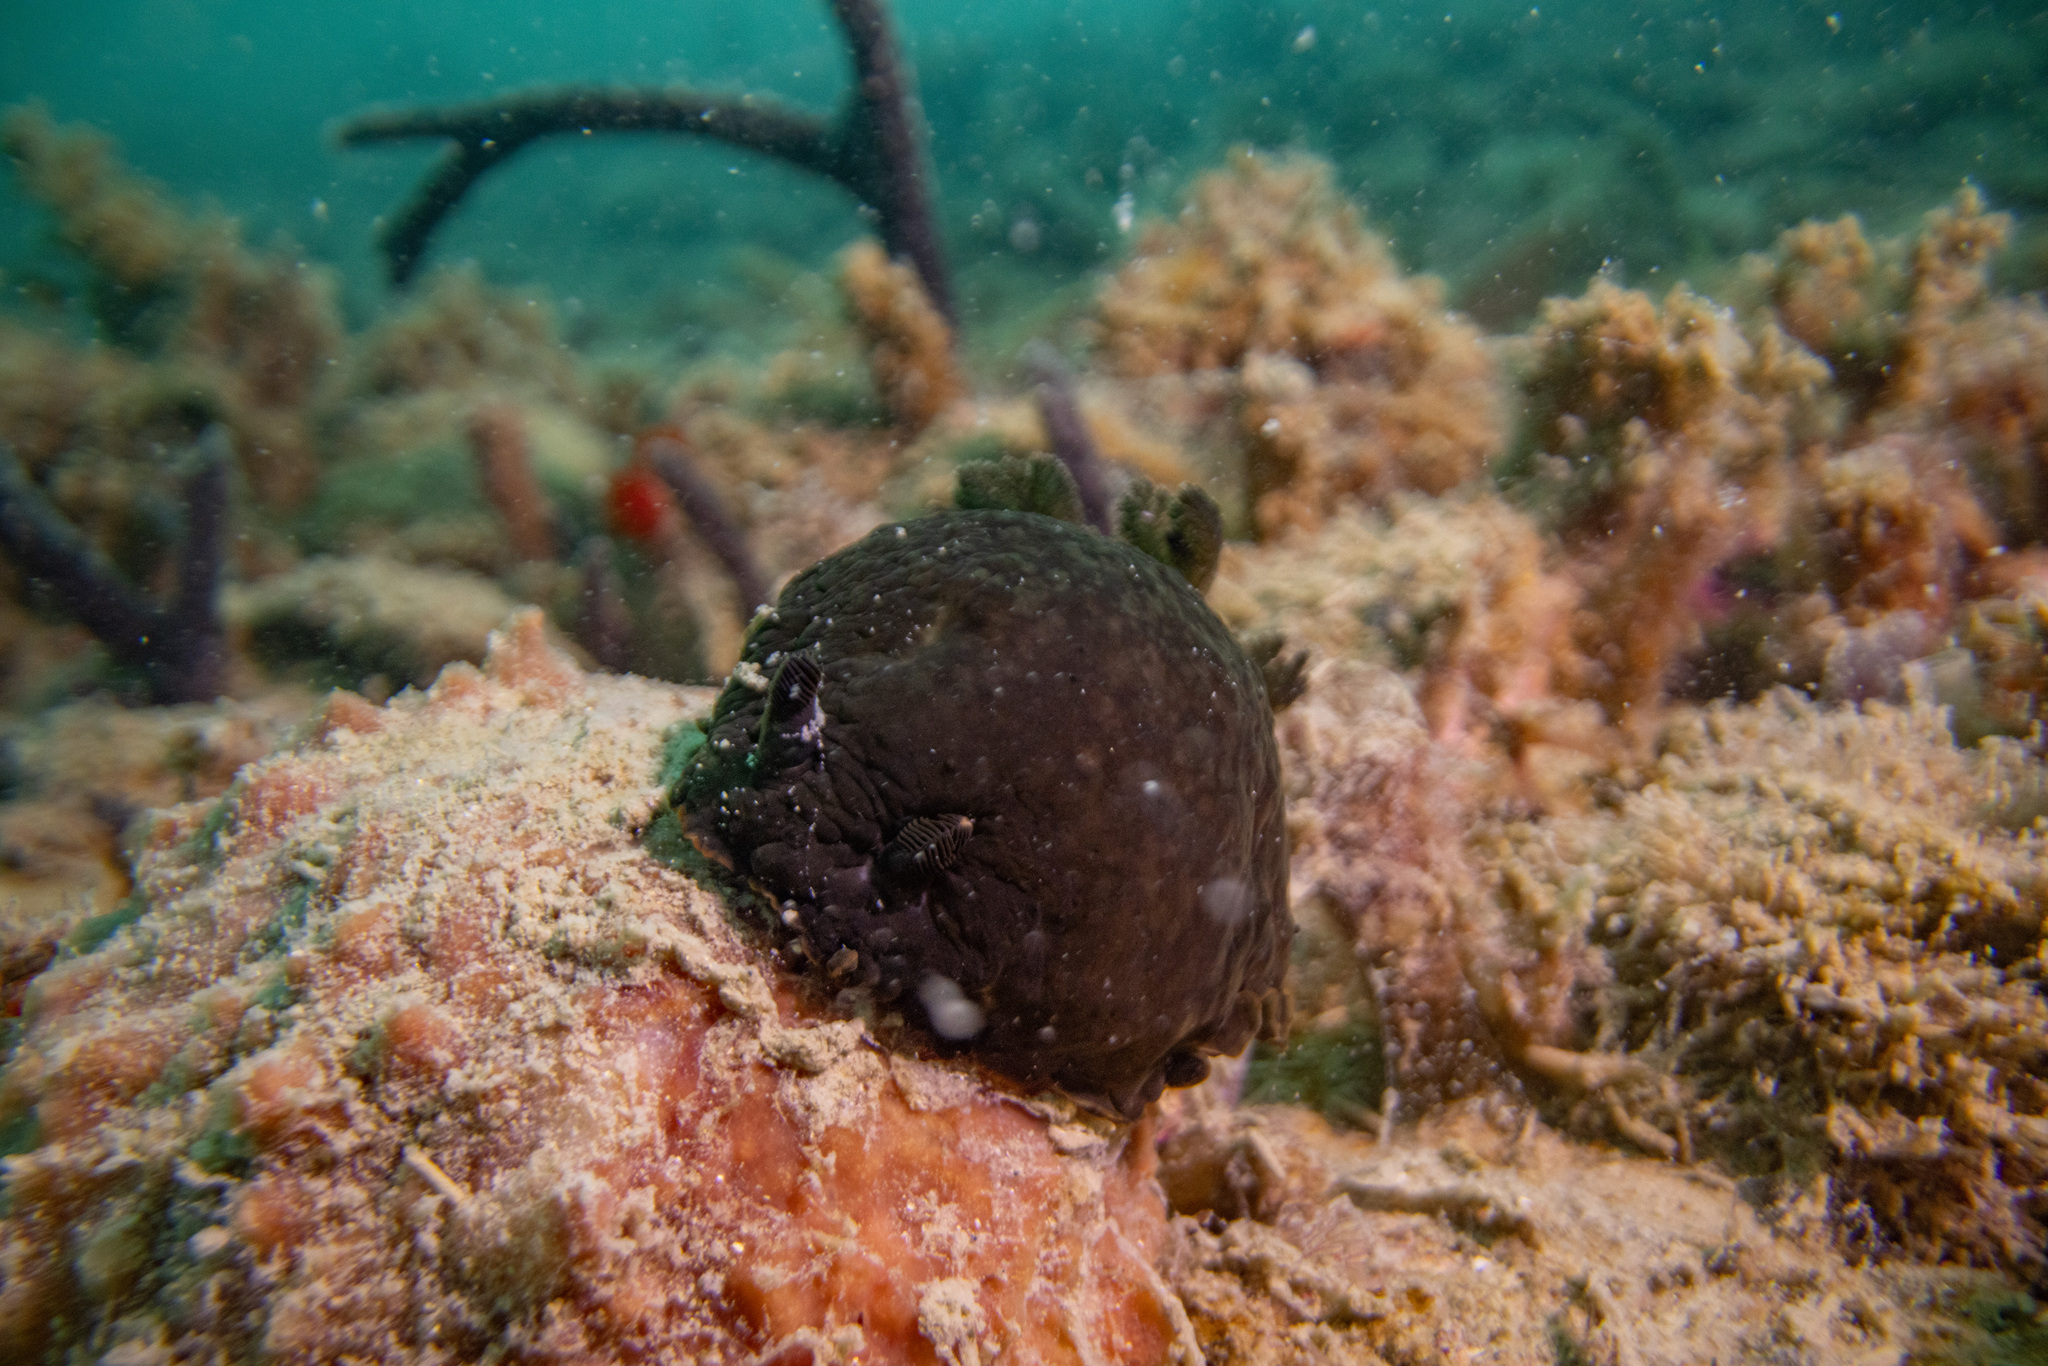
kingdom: Animalia
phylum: Mollusca
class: Gastropoda
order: Nudibranchia
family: Dendrodorididae
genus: Dendrodoris
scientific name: Dendrodoris nigra
